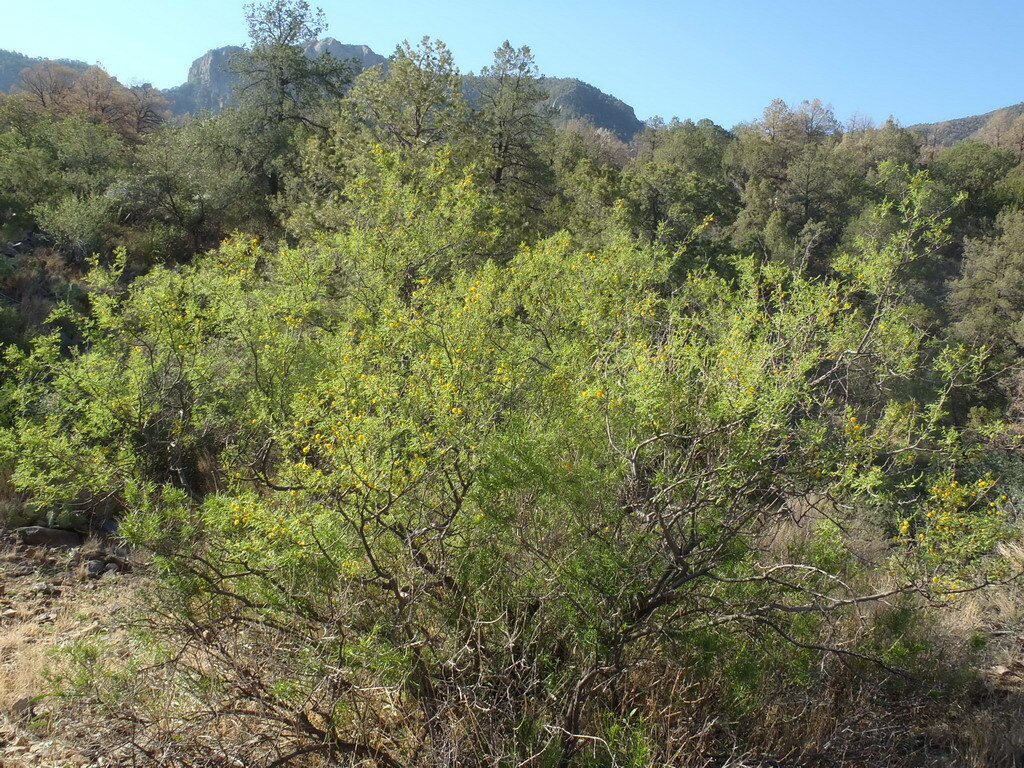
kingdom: Plantae
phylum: Tracheophyta
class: Magnoliopsida
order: Fabales
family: Fabaceae
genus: Vachellia
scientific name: Vachellia constricta
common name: Mescat acacia
